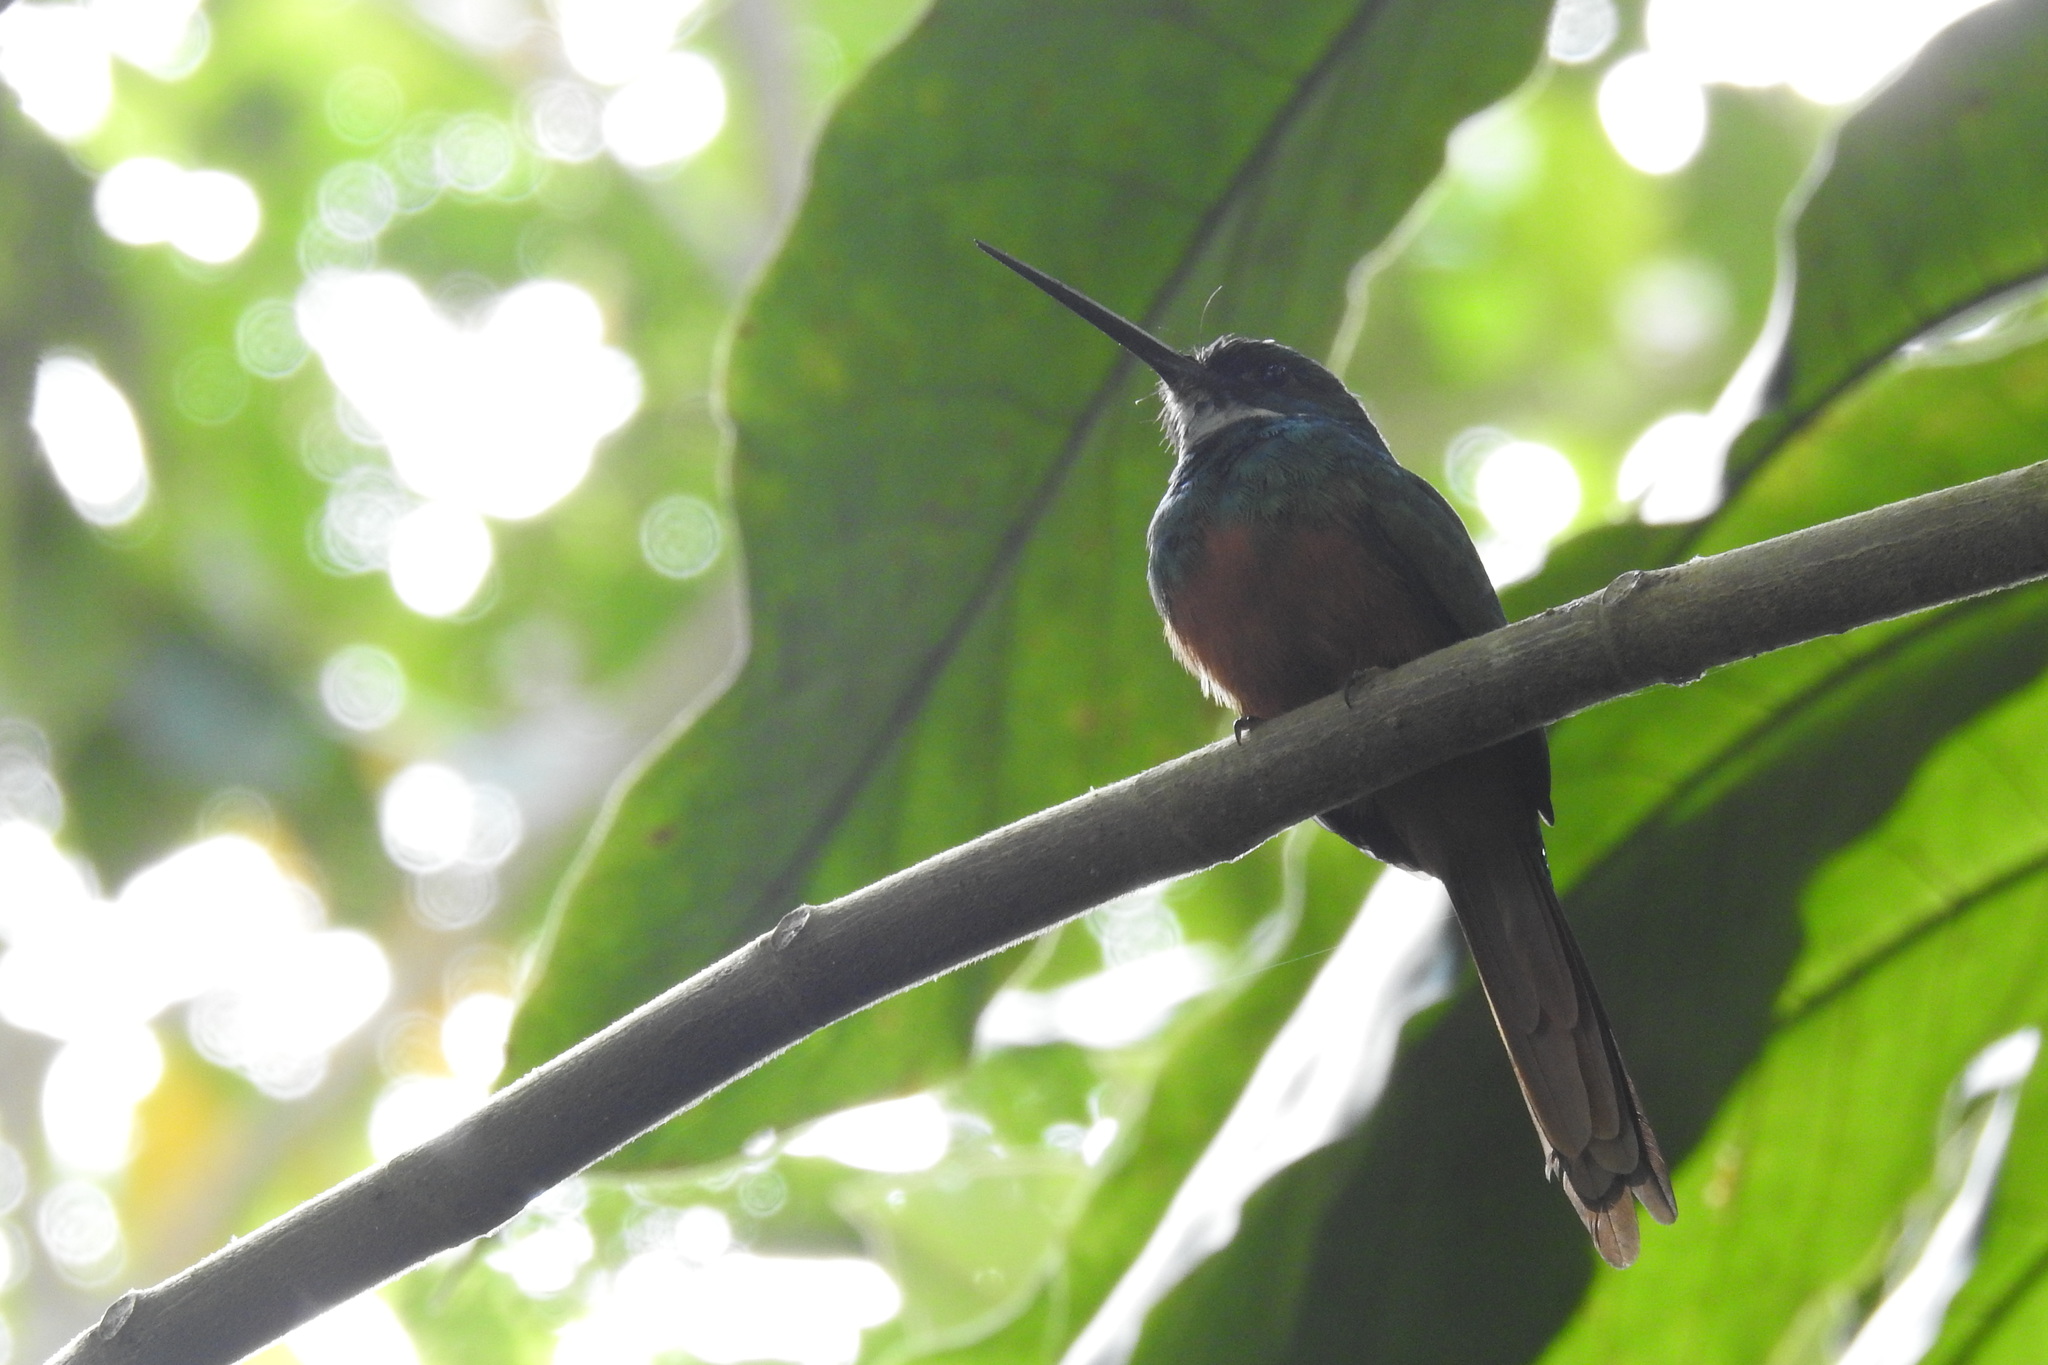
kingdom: Animalia
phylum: Chordata
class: Aves
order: Piciformes
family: Galbulidae
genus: Galbula
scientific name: Galbula ruficauda
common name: Rufous-tailed jacamar
